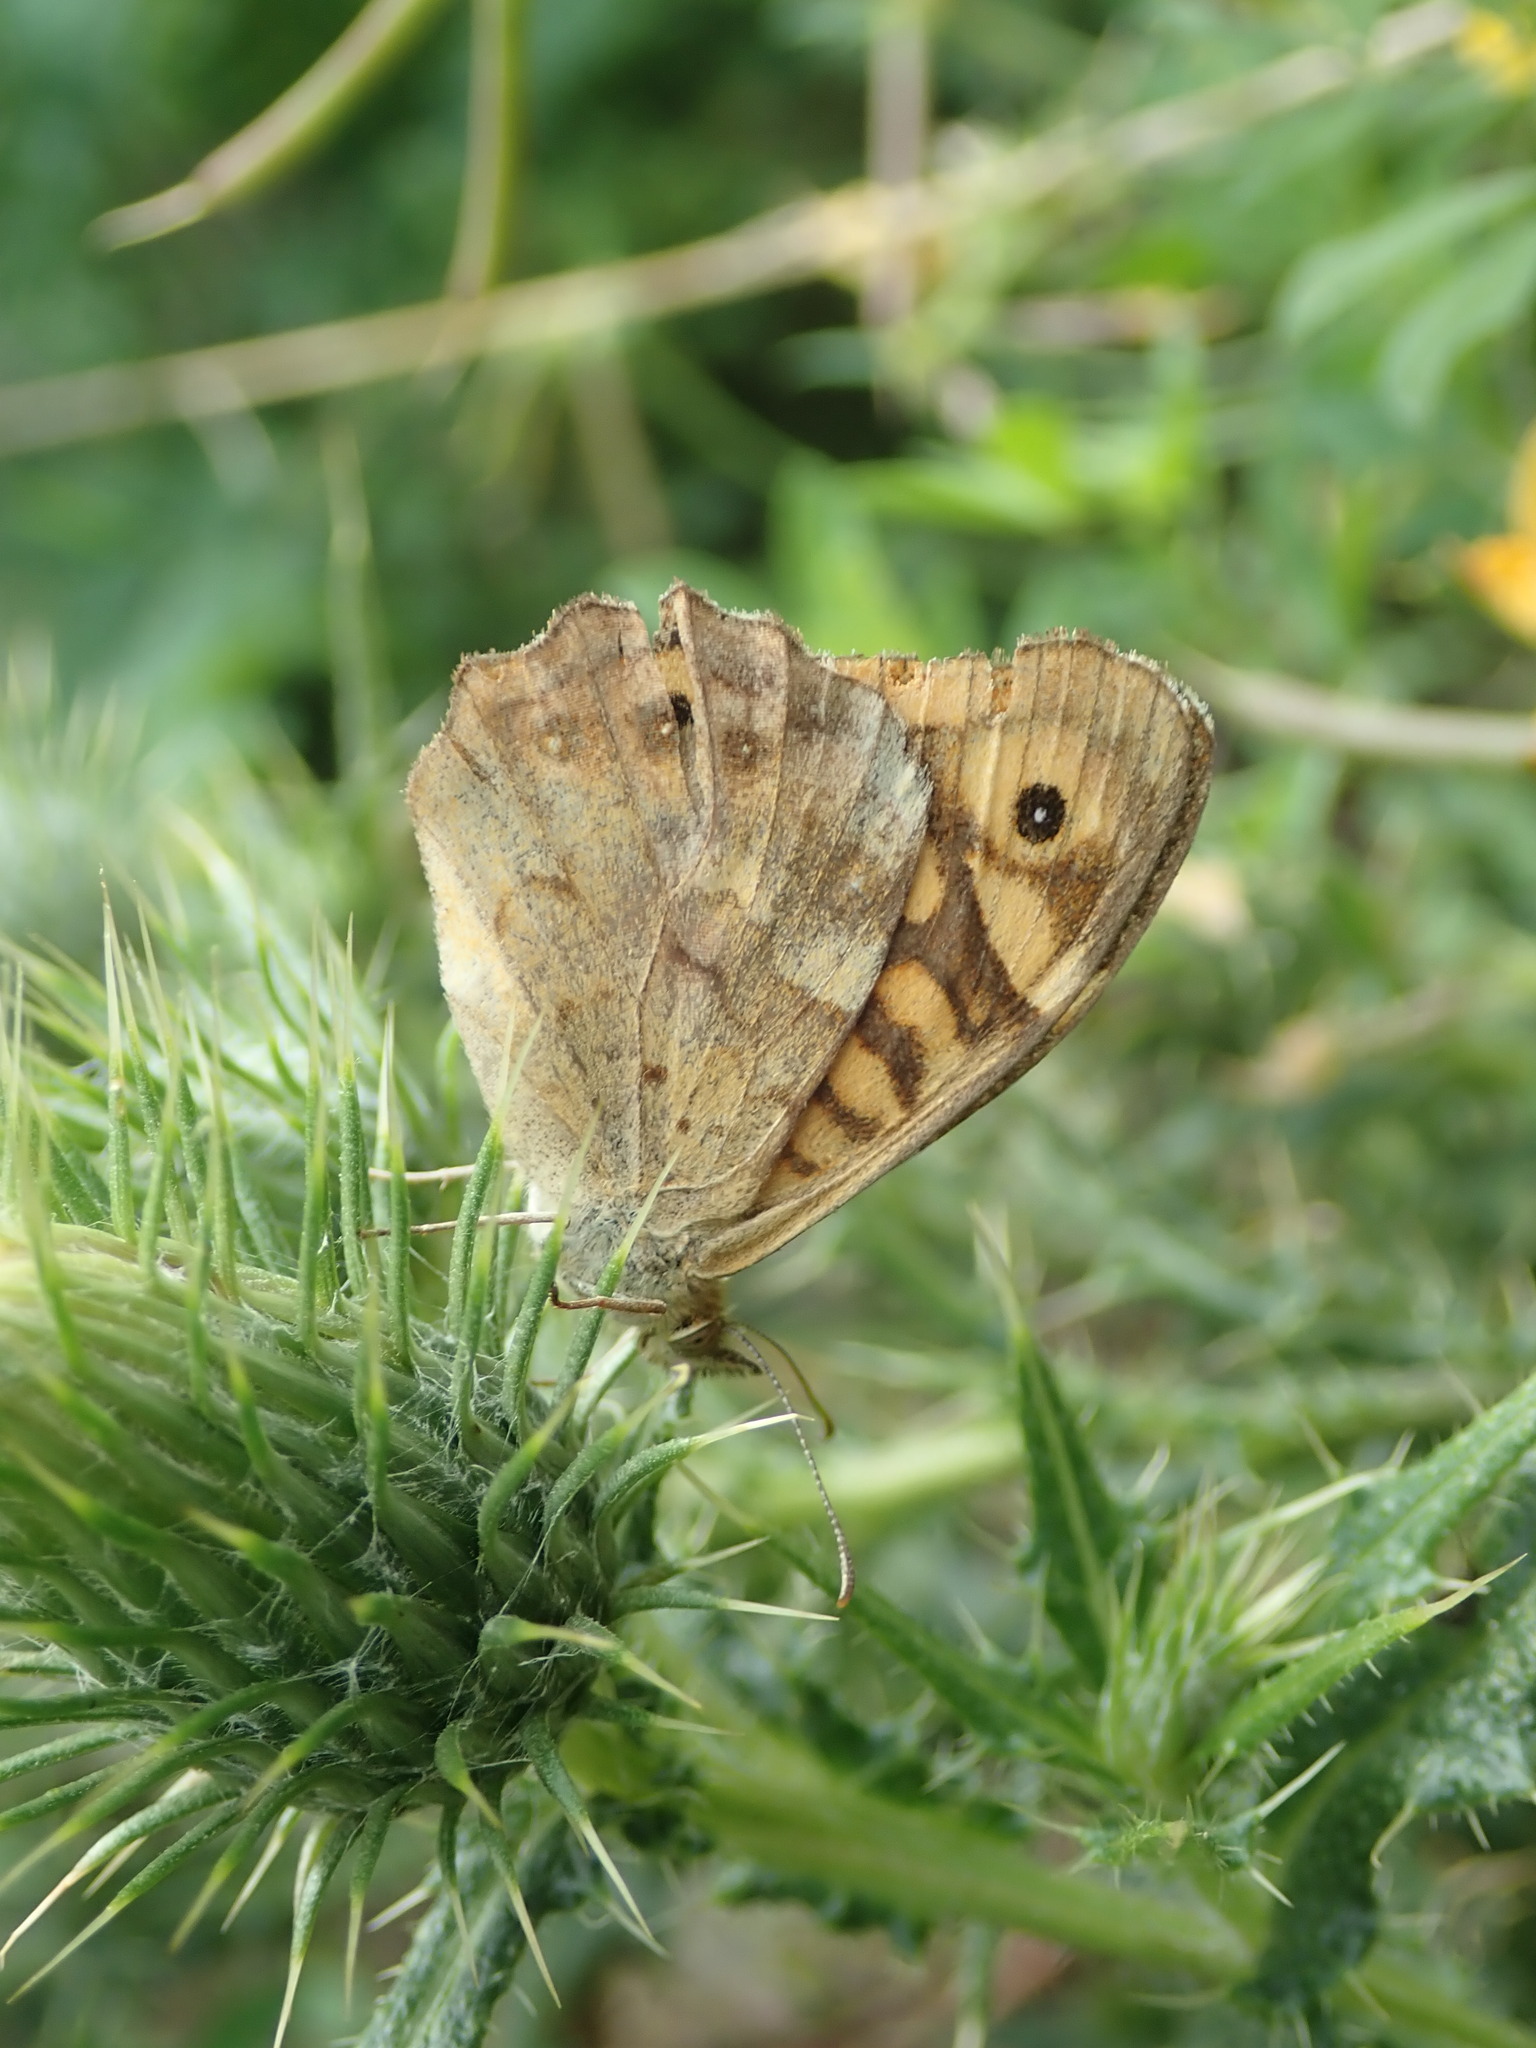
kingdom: Animalia
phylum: Arthropoda
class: Insecta
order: Lepidoptera
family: Nymphalidae
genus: Pararge
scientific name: Pararge aegeria
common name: Speckled wood
